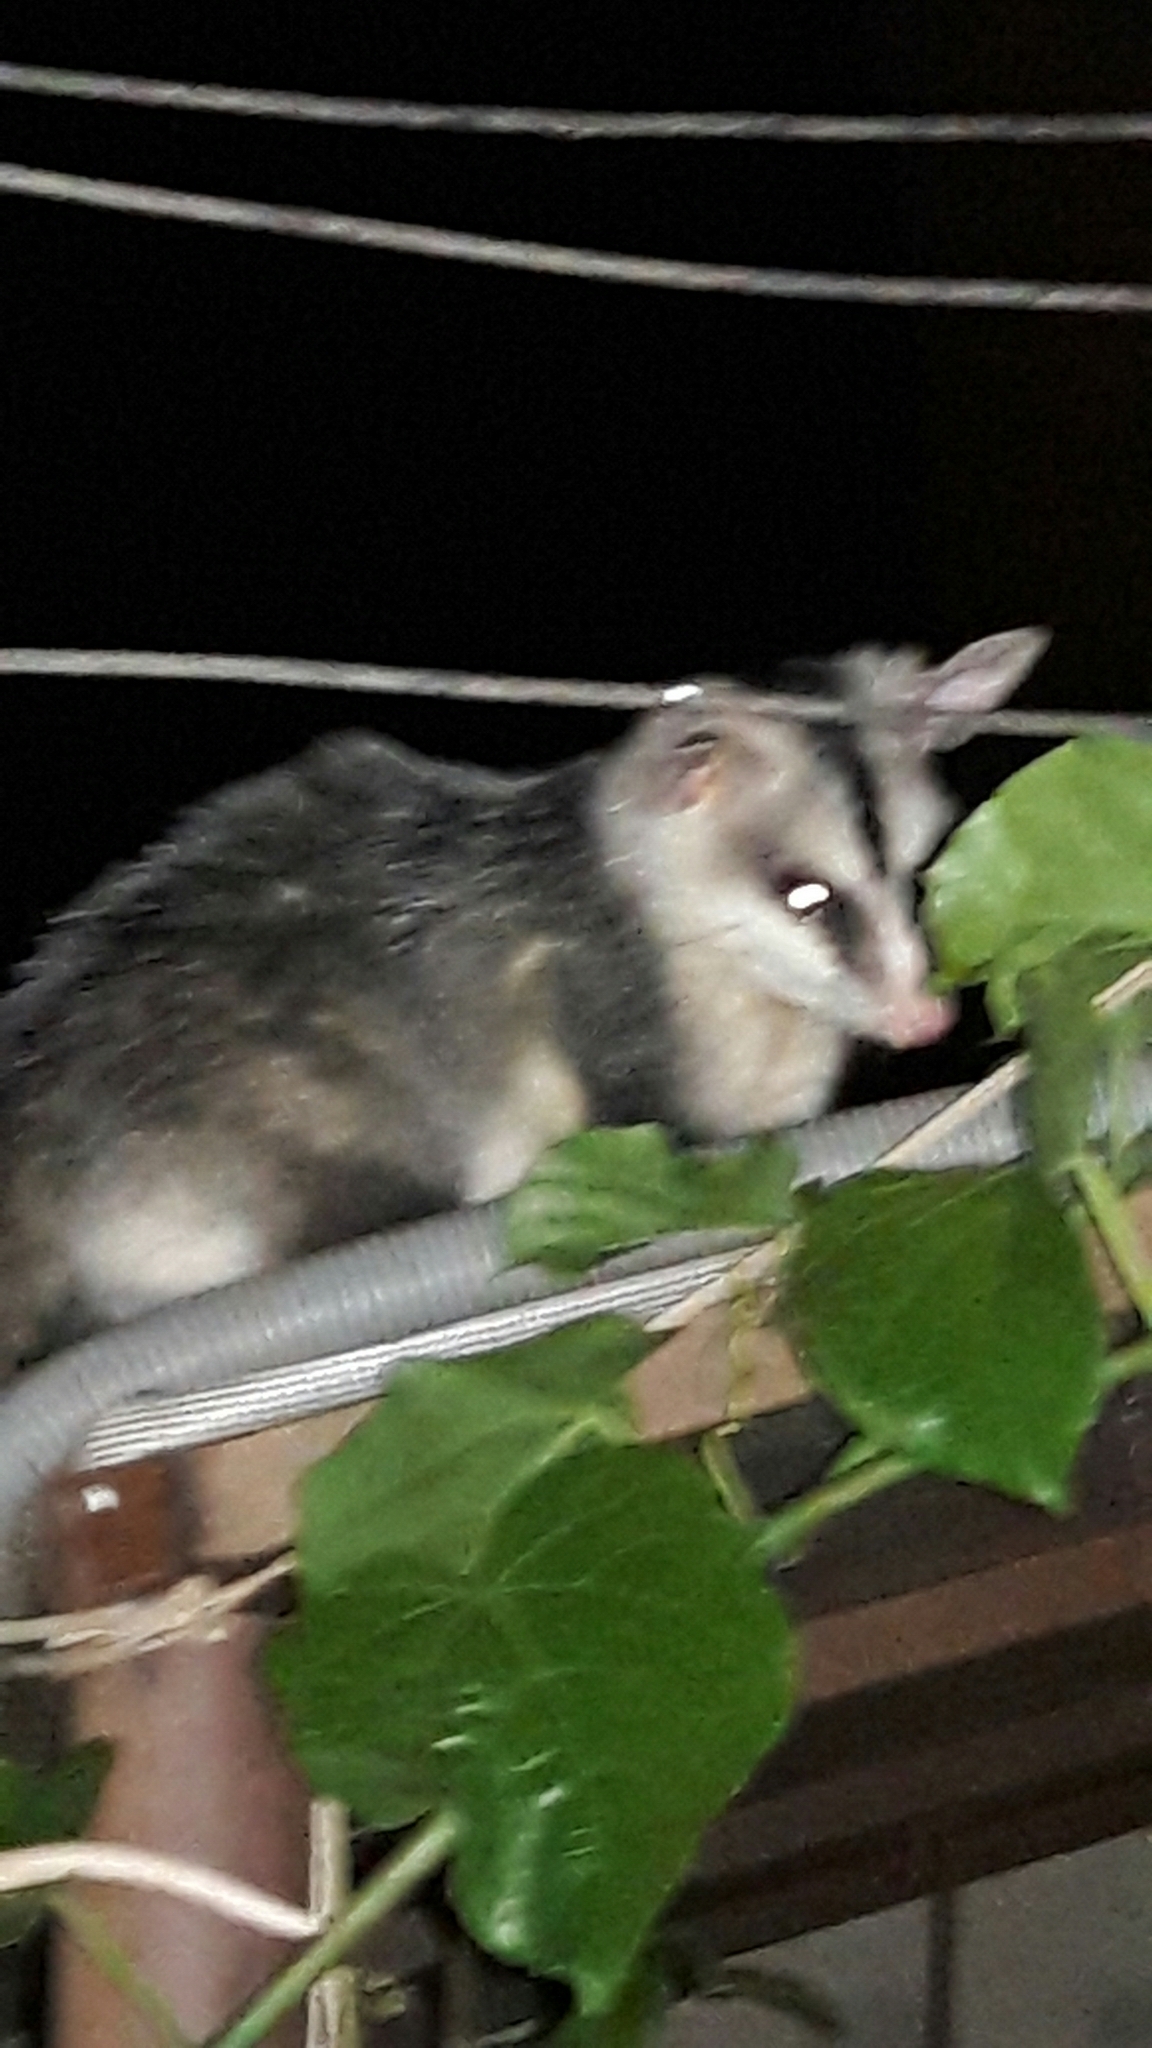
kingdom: Animalia
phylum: Chordata
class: Mammalia
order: Didelphimorphia
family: Didelphidae
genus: Didelphis
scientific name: Didelphis albiventris
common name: White-eared opossum
